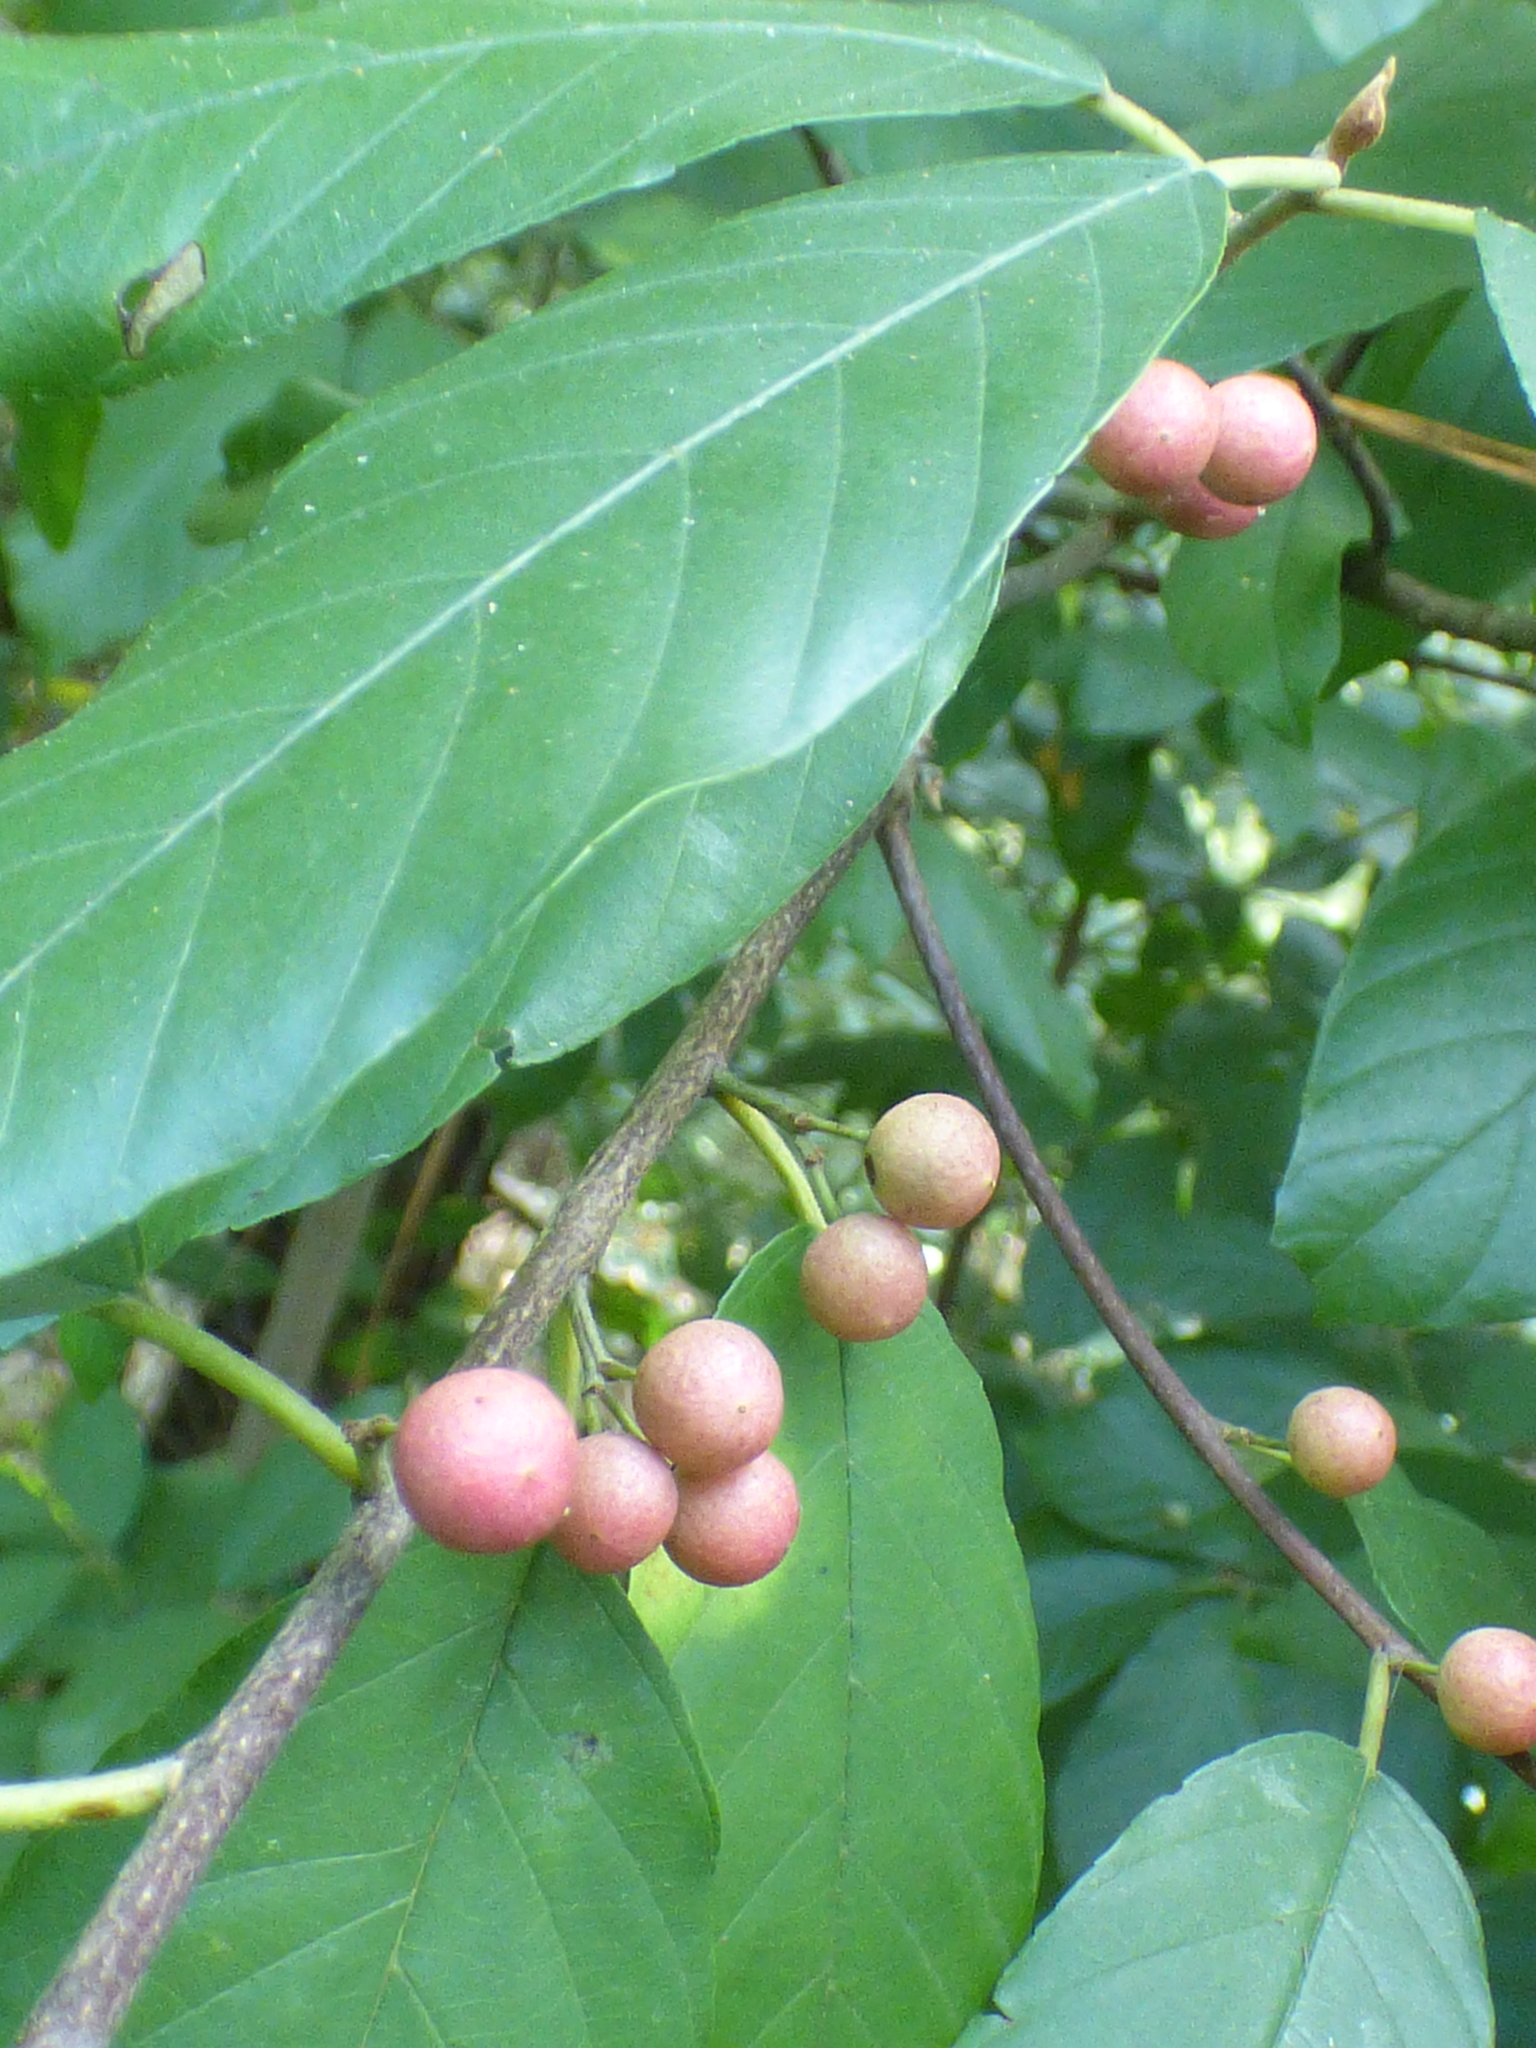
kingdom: Plantae
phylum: Tracheophyta
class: Magnoliopsida
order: Rosales
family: Rhamnaceae
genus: Frangula
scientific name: Frangula caroliniana
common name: Carolina buckthorn
